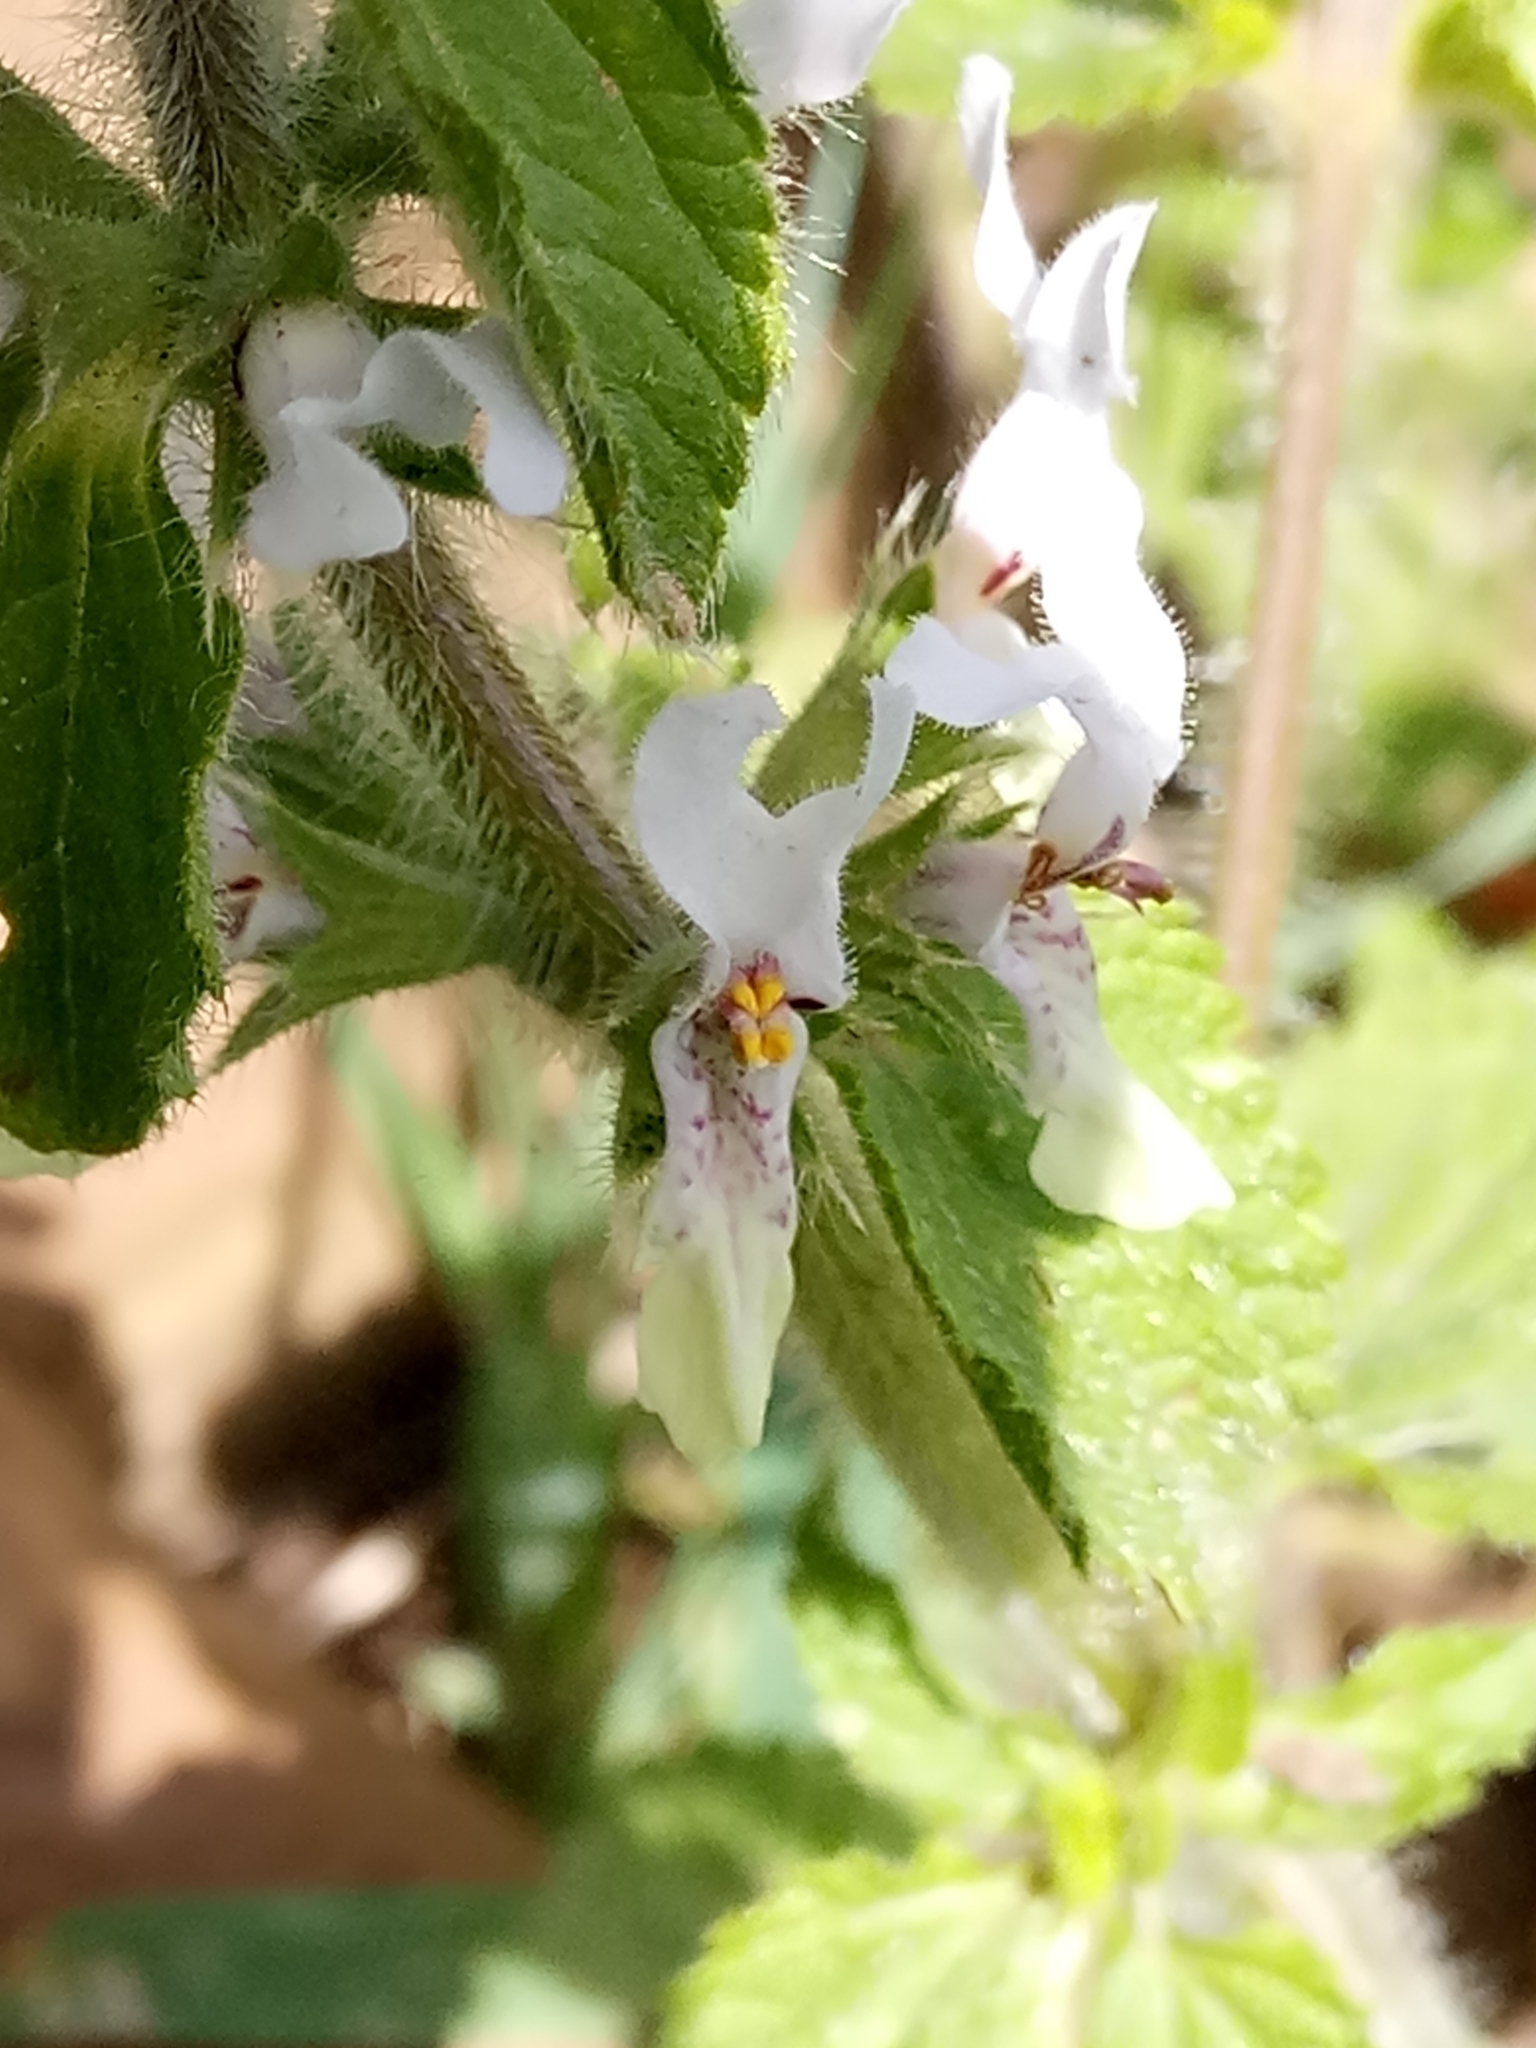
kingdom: Plantae
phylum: Tracheophyta
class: Magnoliopsida
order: Lamiales
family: Lamiaceae
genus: Stachys
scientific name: Stachys ocymastrum
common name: Italian hedgenettle
